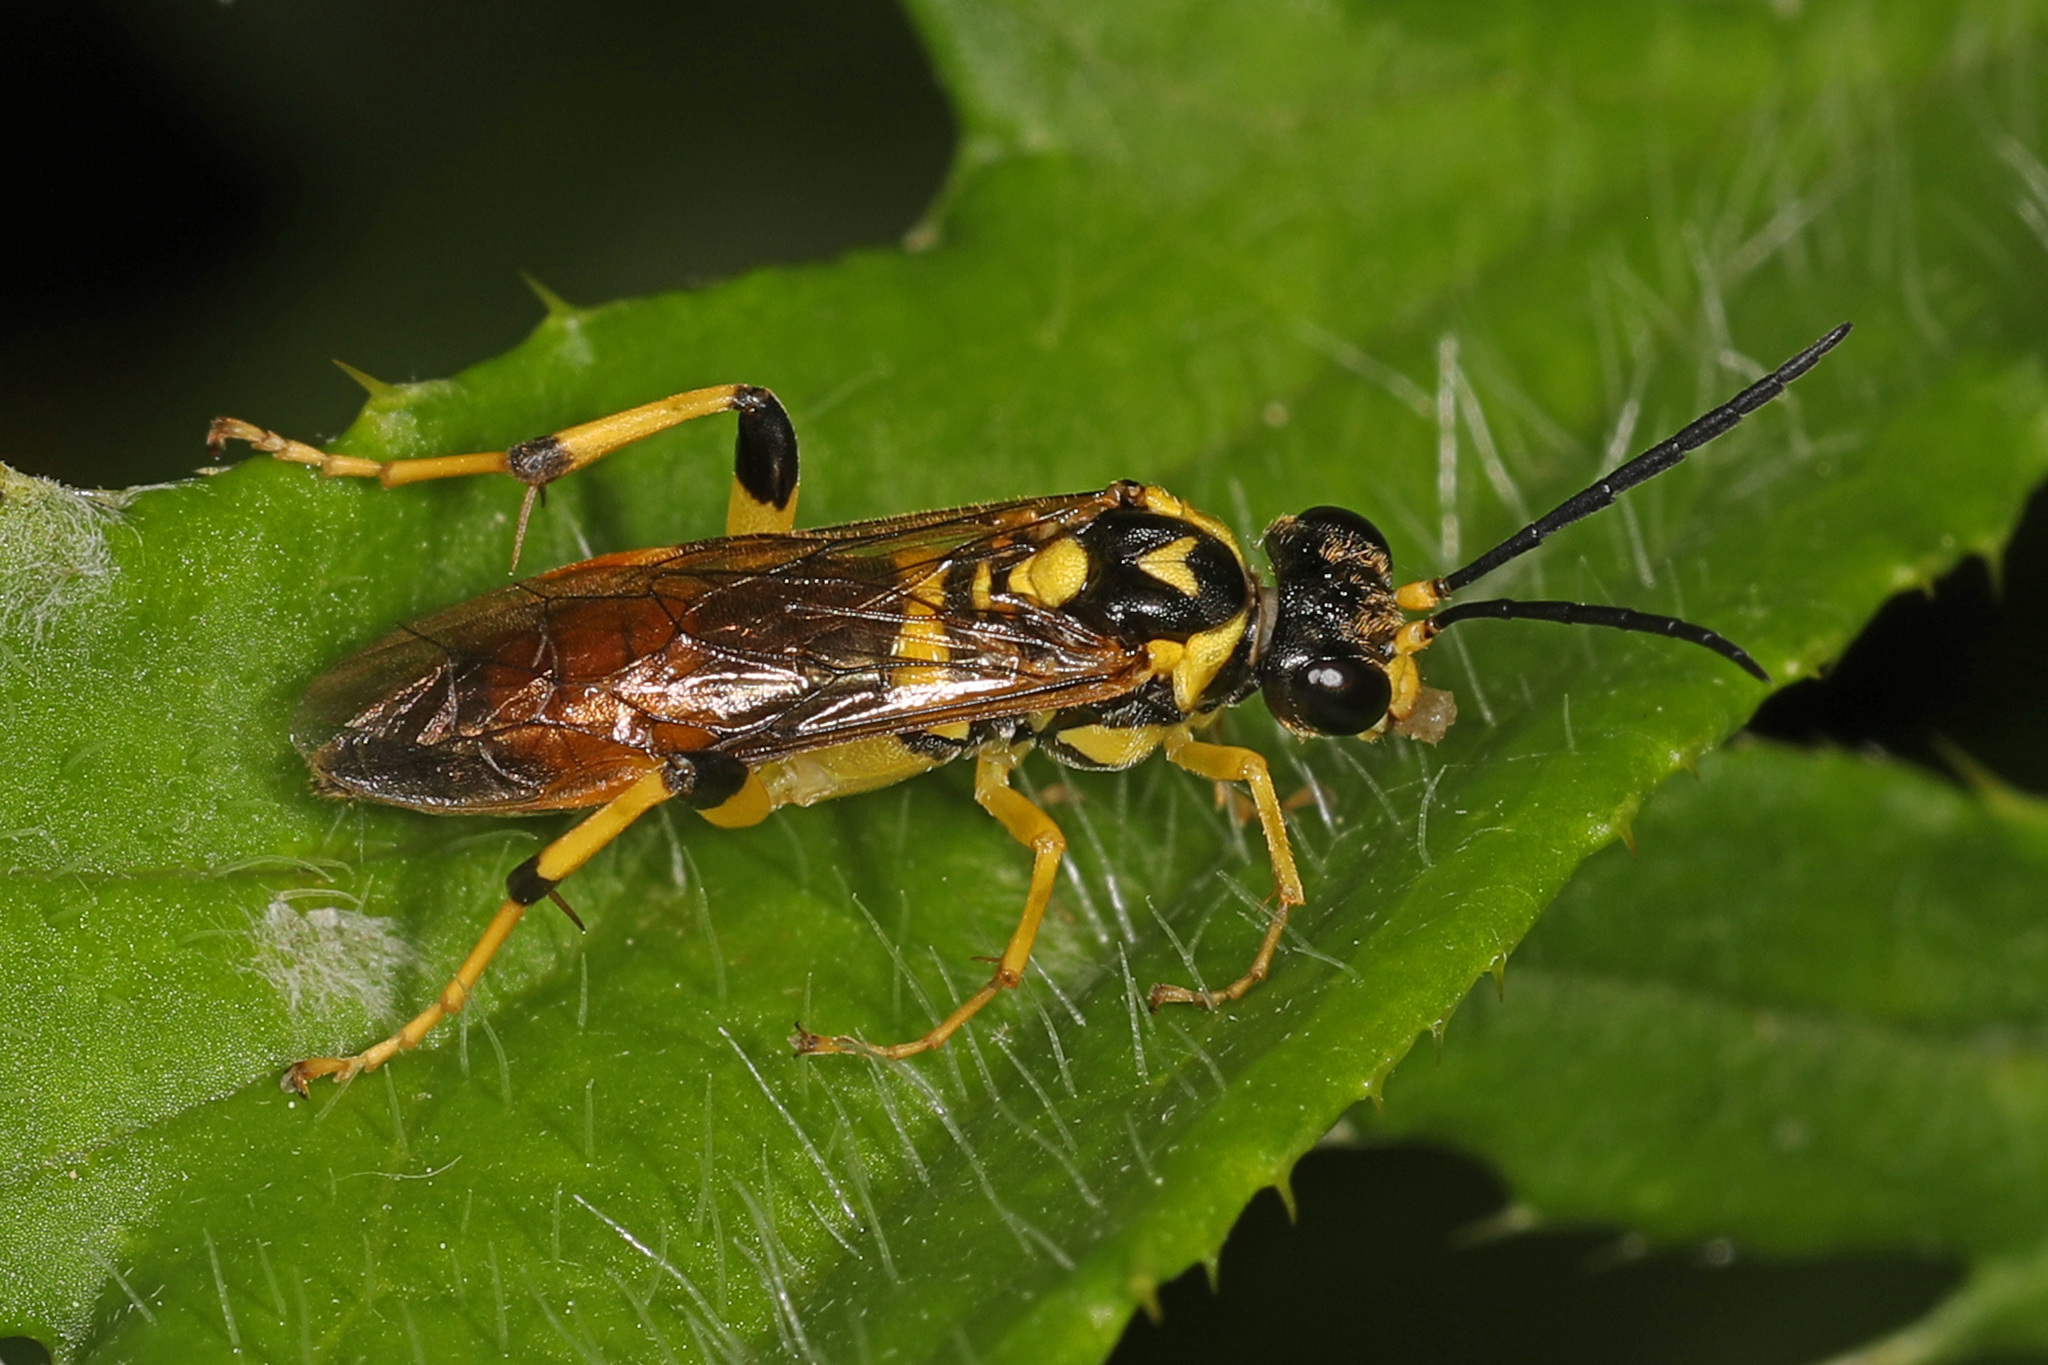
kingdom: Animalia
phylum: Arthropoda
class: Insecta
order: Hymenoptera
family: Tenthredinidae
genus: Macrophya
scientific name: Macrophya formosa
